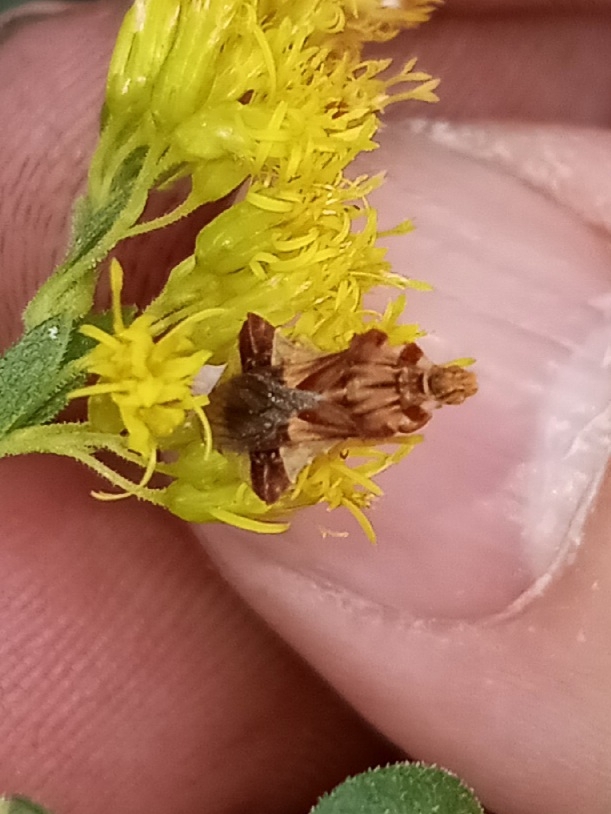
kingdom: Animalia
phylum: Arthropoda
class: Insecta
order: Hemiptera
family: Reduviidae
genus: Phymata
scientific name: Phymata fasciata
